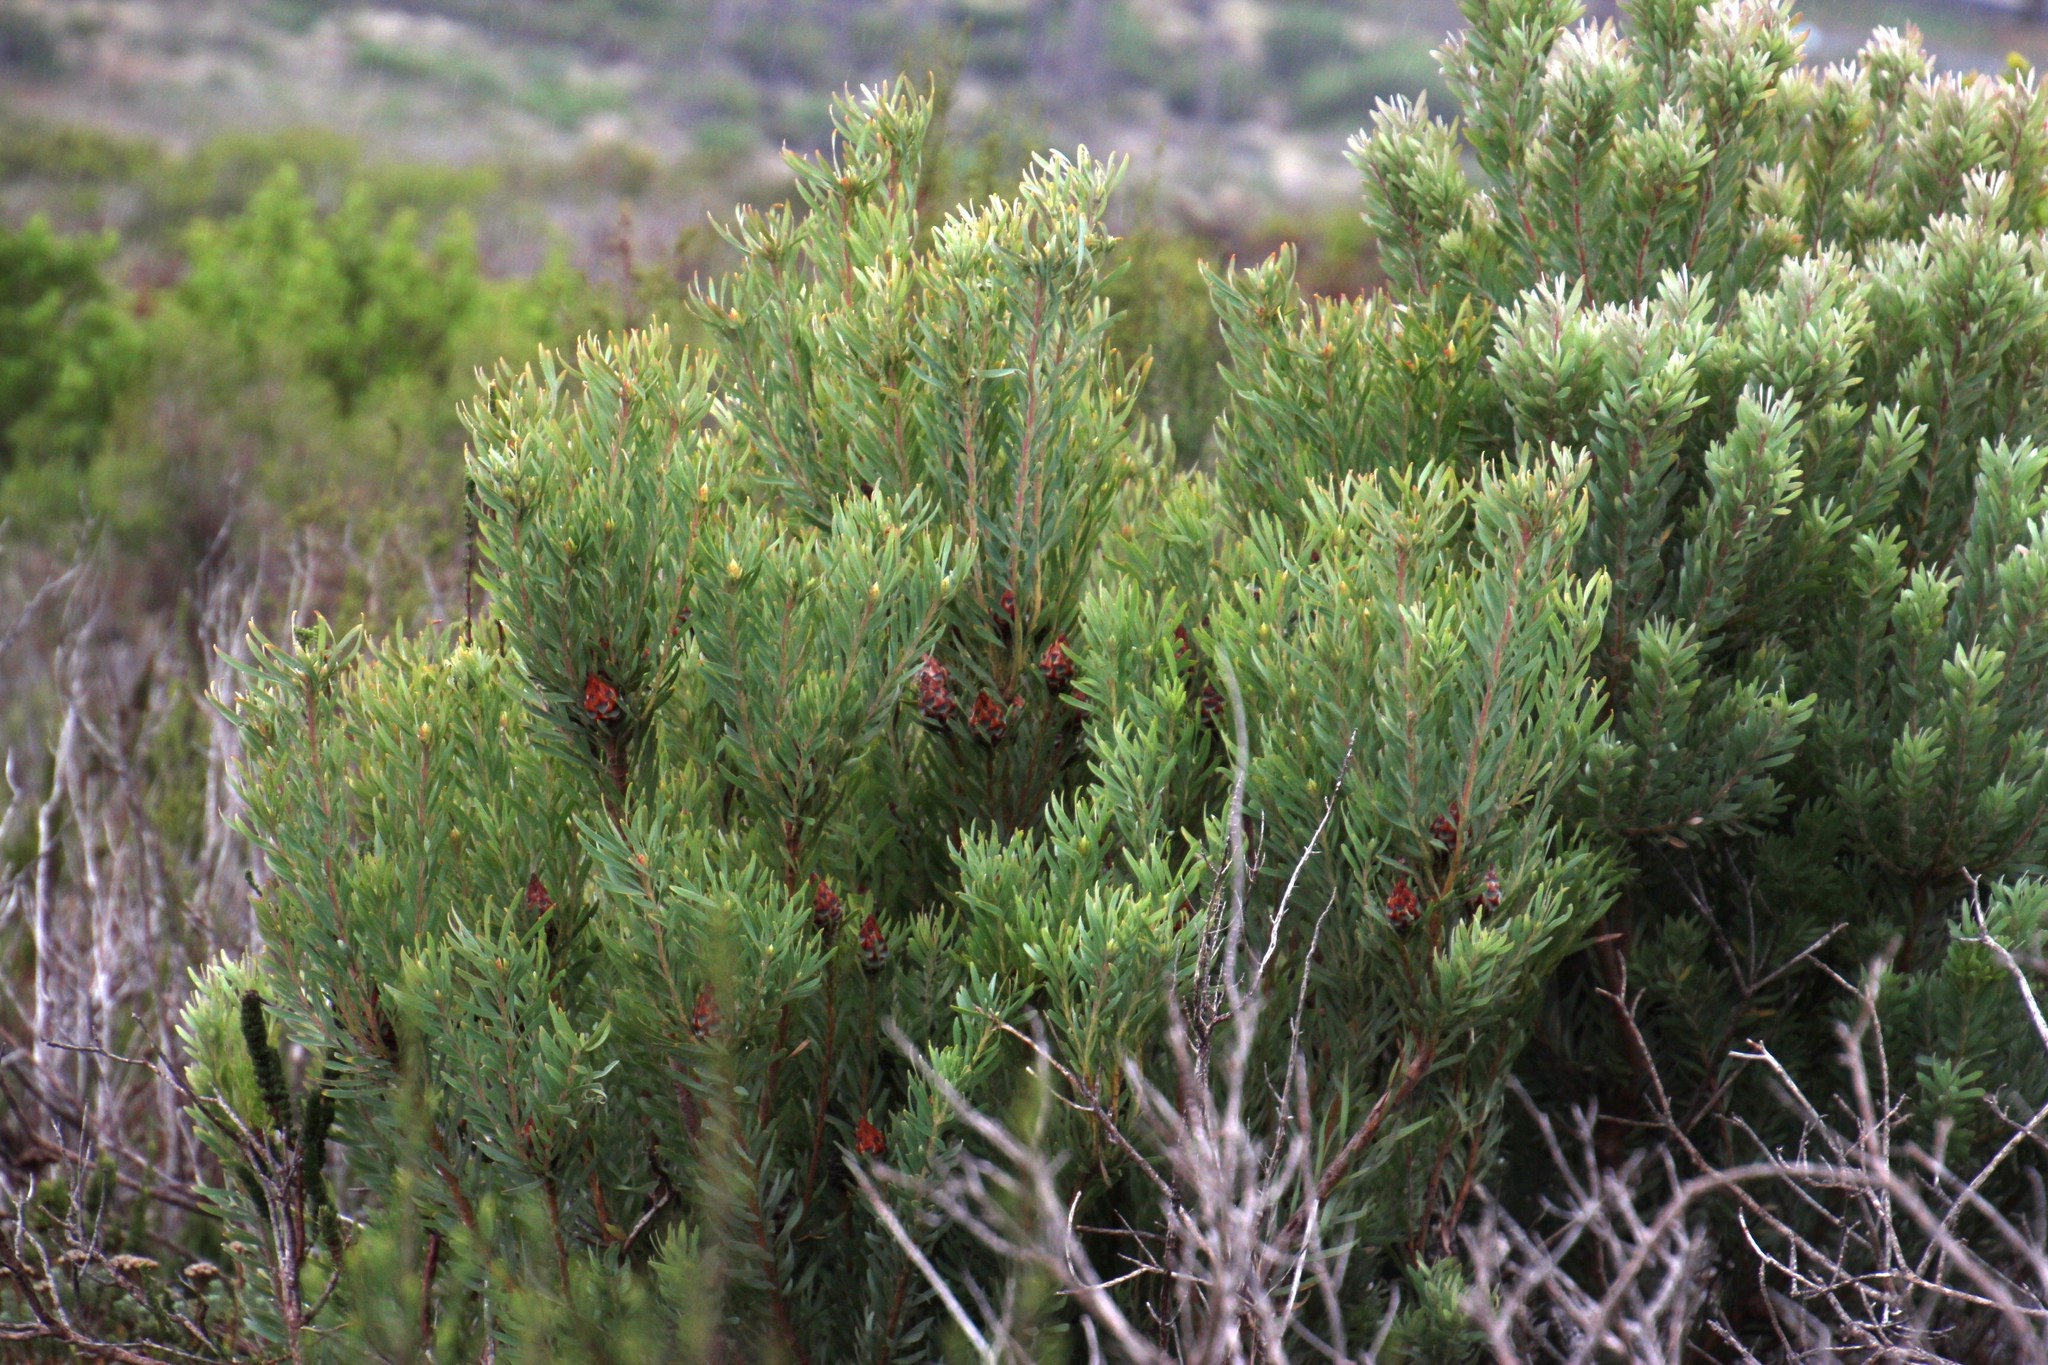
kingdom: Plantae
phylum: Tracheophyta
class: Magnoliopsida
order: Proteales
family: Proteaceae
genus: Leucadendron
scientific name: Leucadendron rubrum
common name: Spinning top
